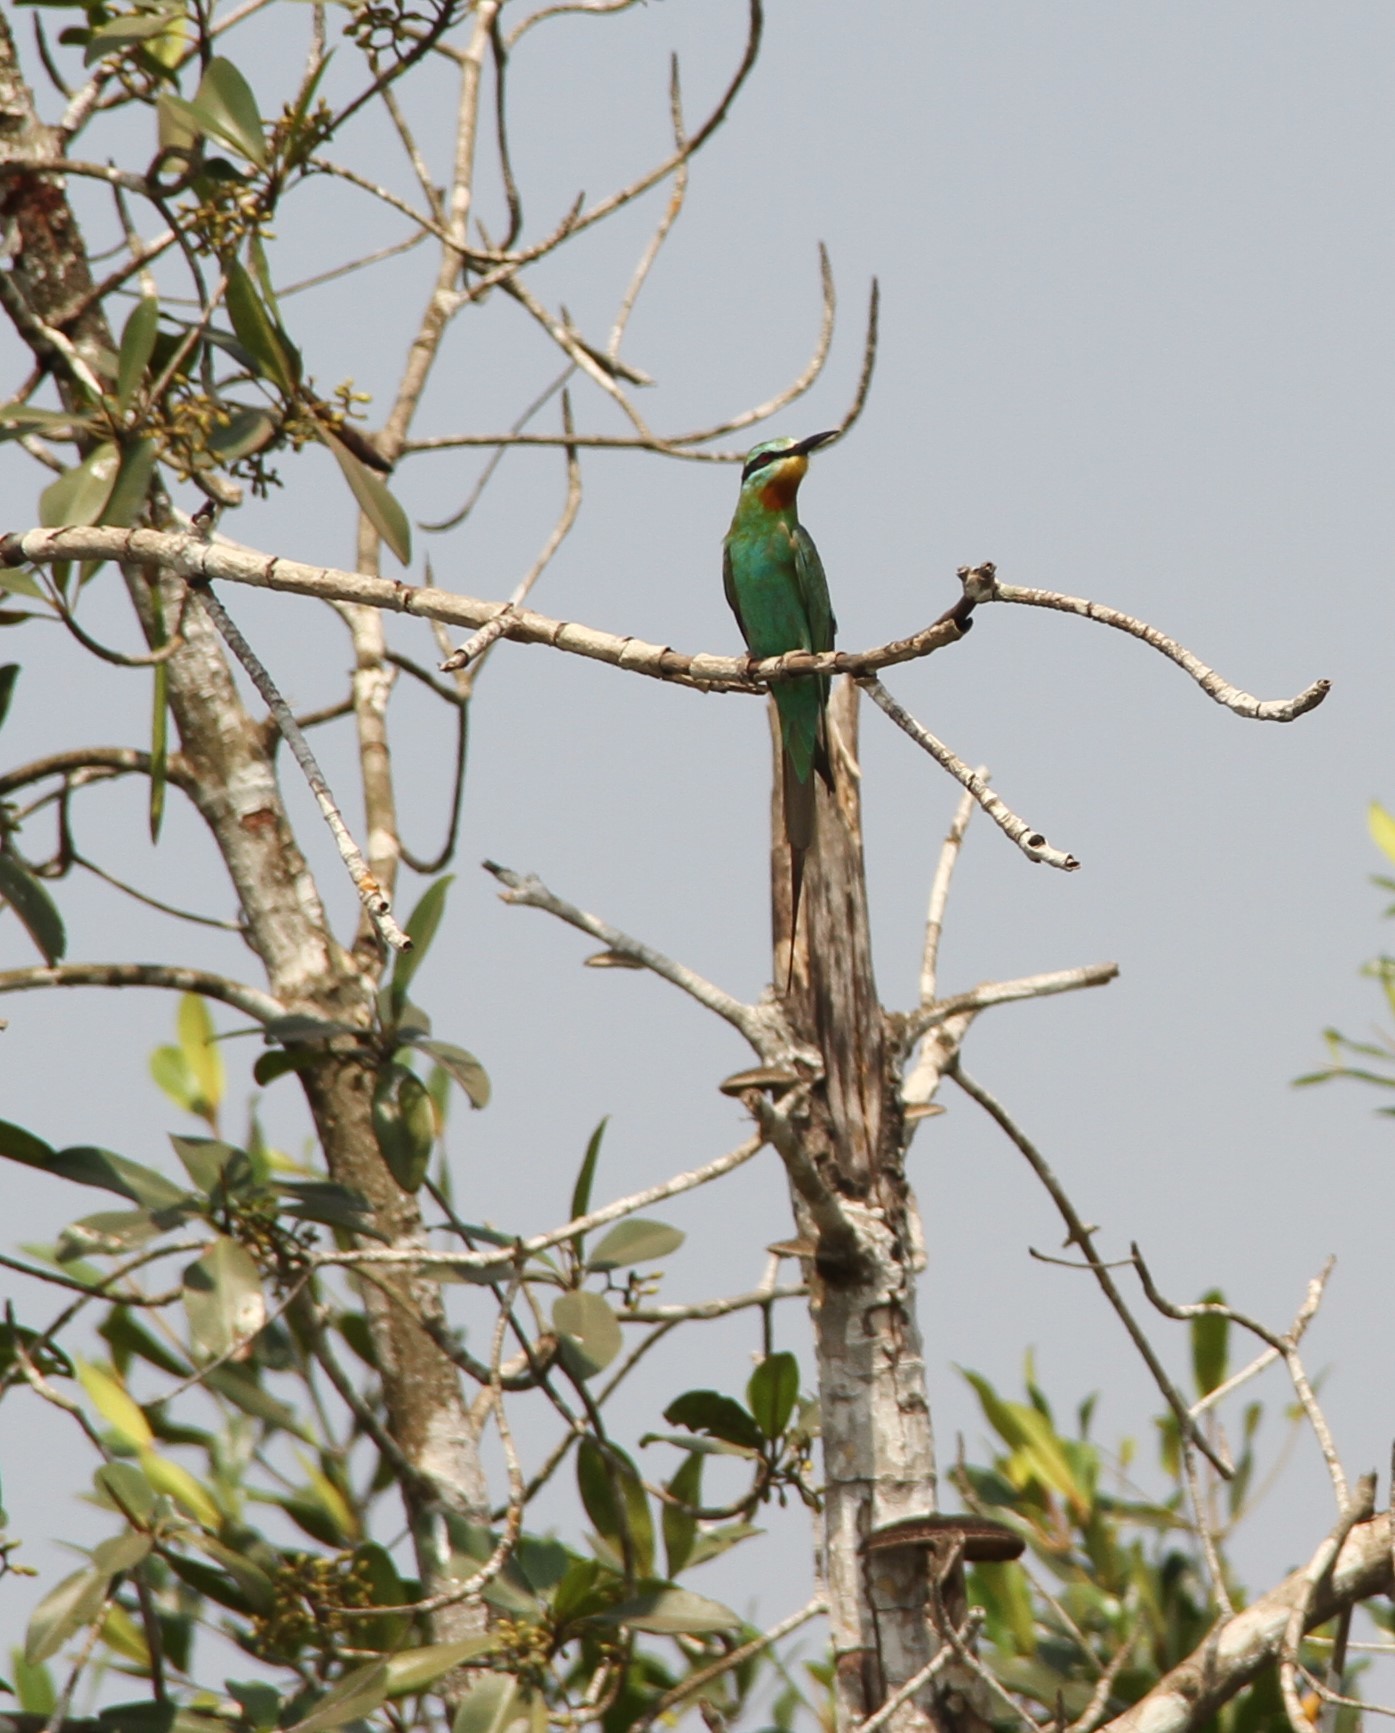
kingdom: Animalia
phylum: Chordata
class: Aves
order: Coraciiformes
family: Meropidae
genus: Merops
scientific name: Merops persicus
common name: Blue-cheeked bee-eater
